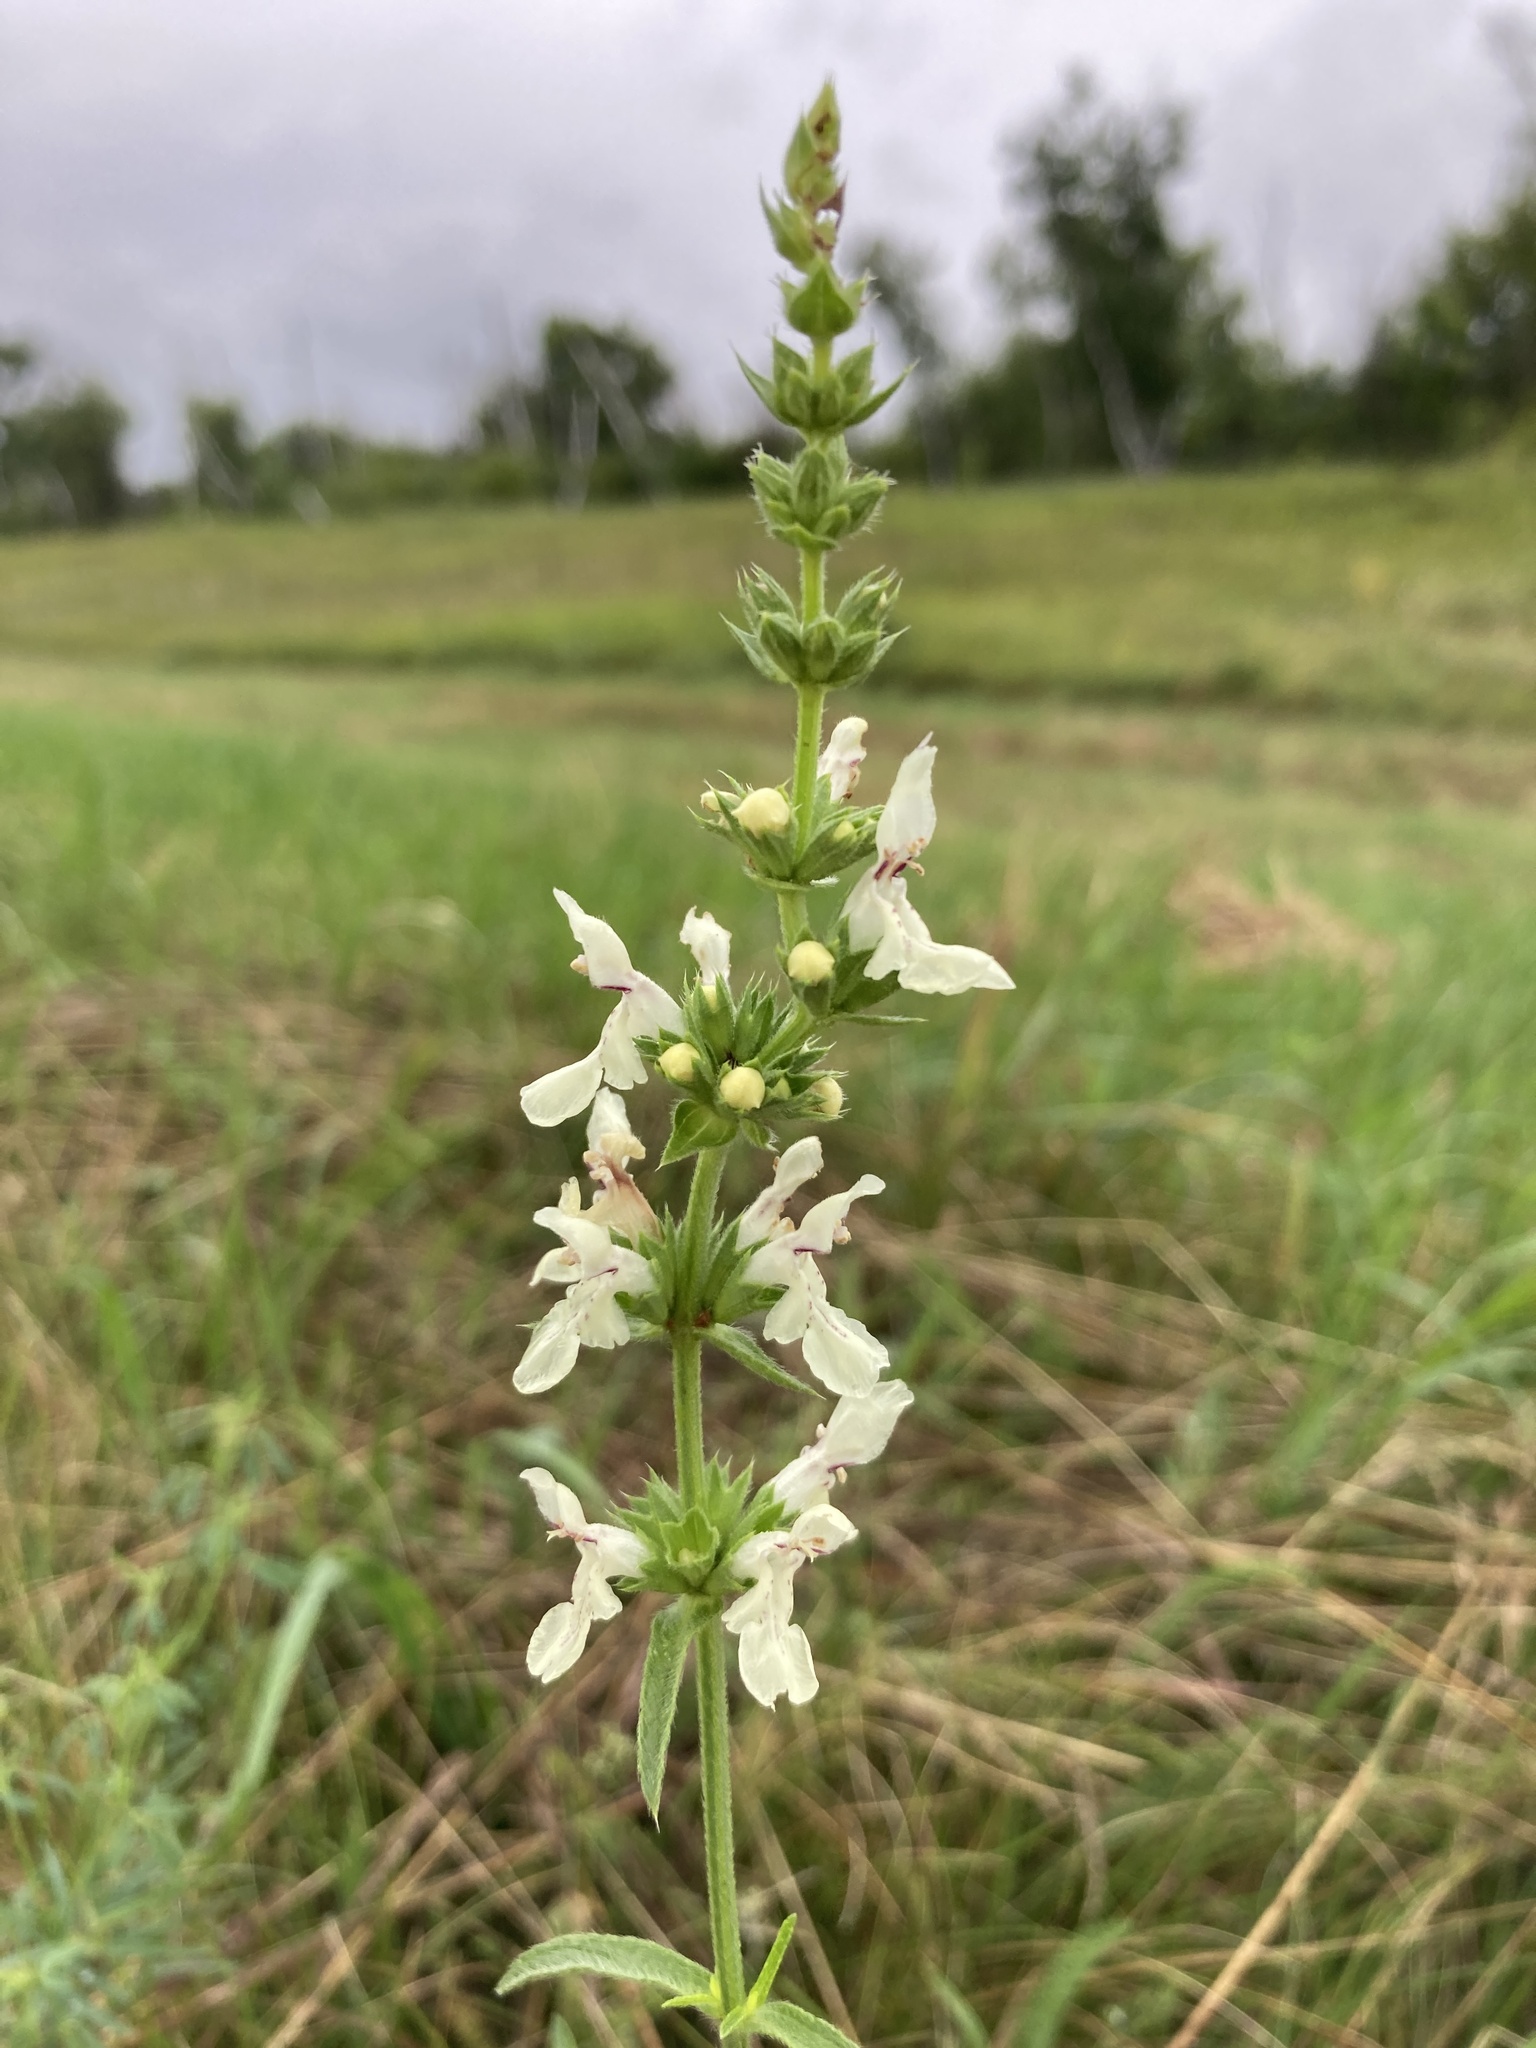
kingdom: Plantae
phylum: Tracheophyta
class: Magnoliopsida
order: Lamiales
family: Lamiaceae
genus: Stachys
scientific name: Stachys recta
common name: Perennial yellow-woundwort
